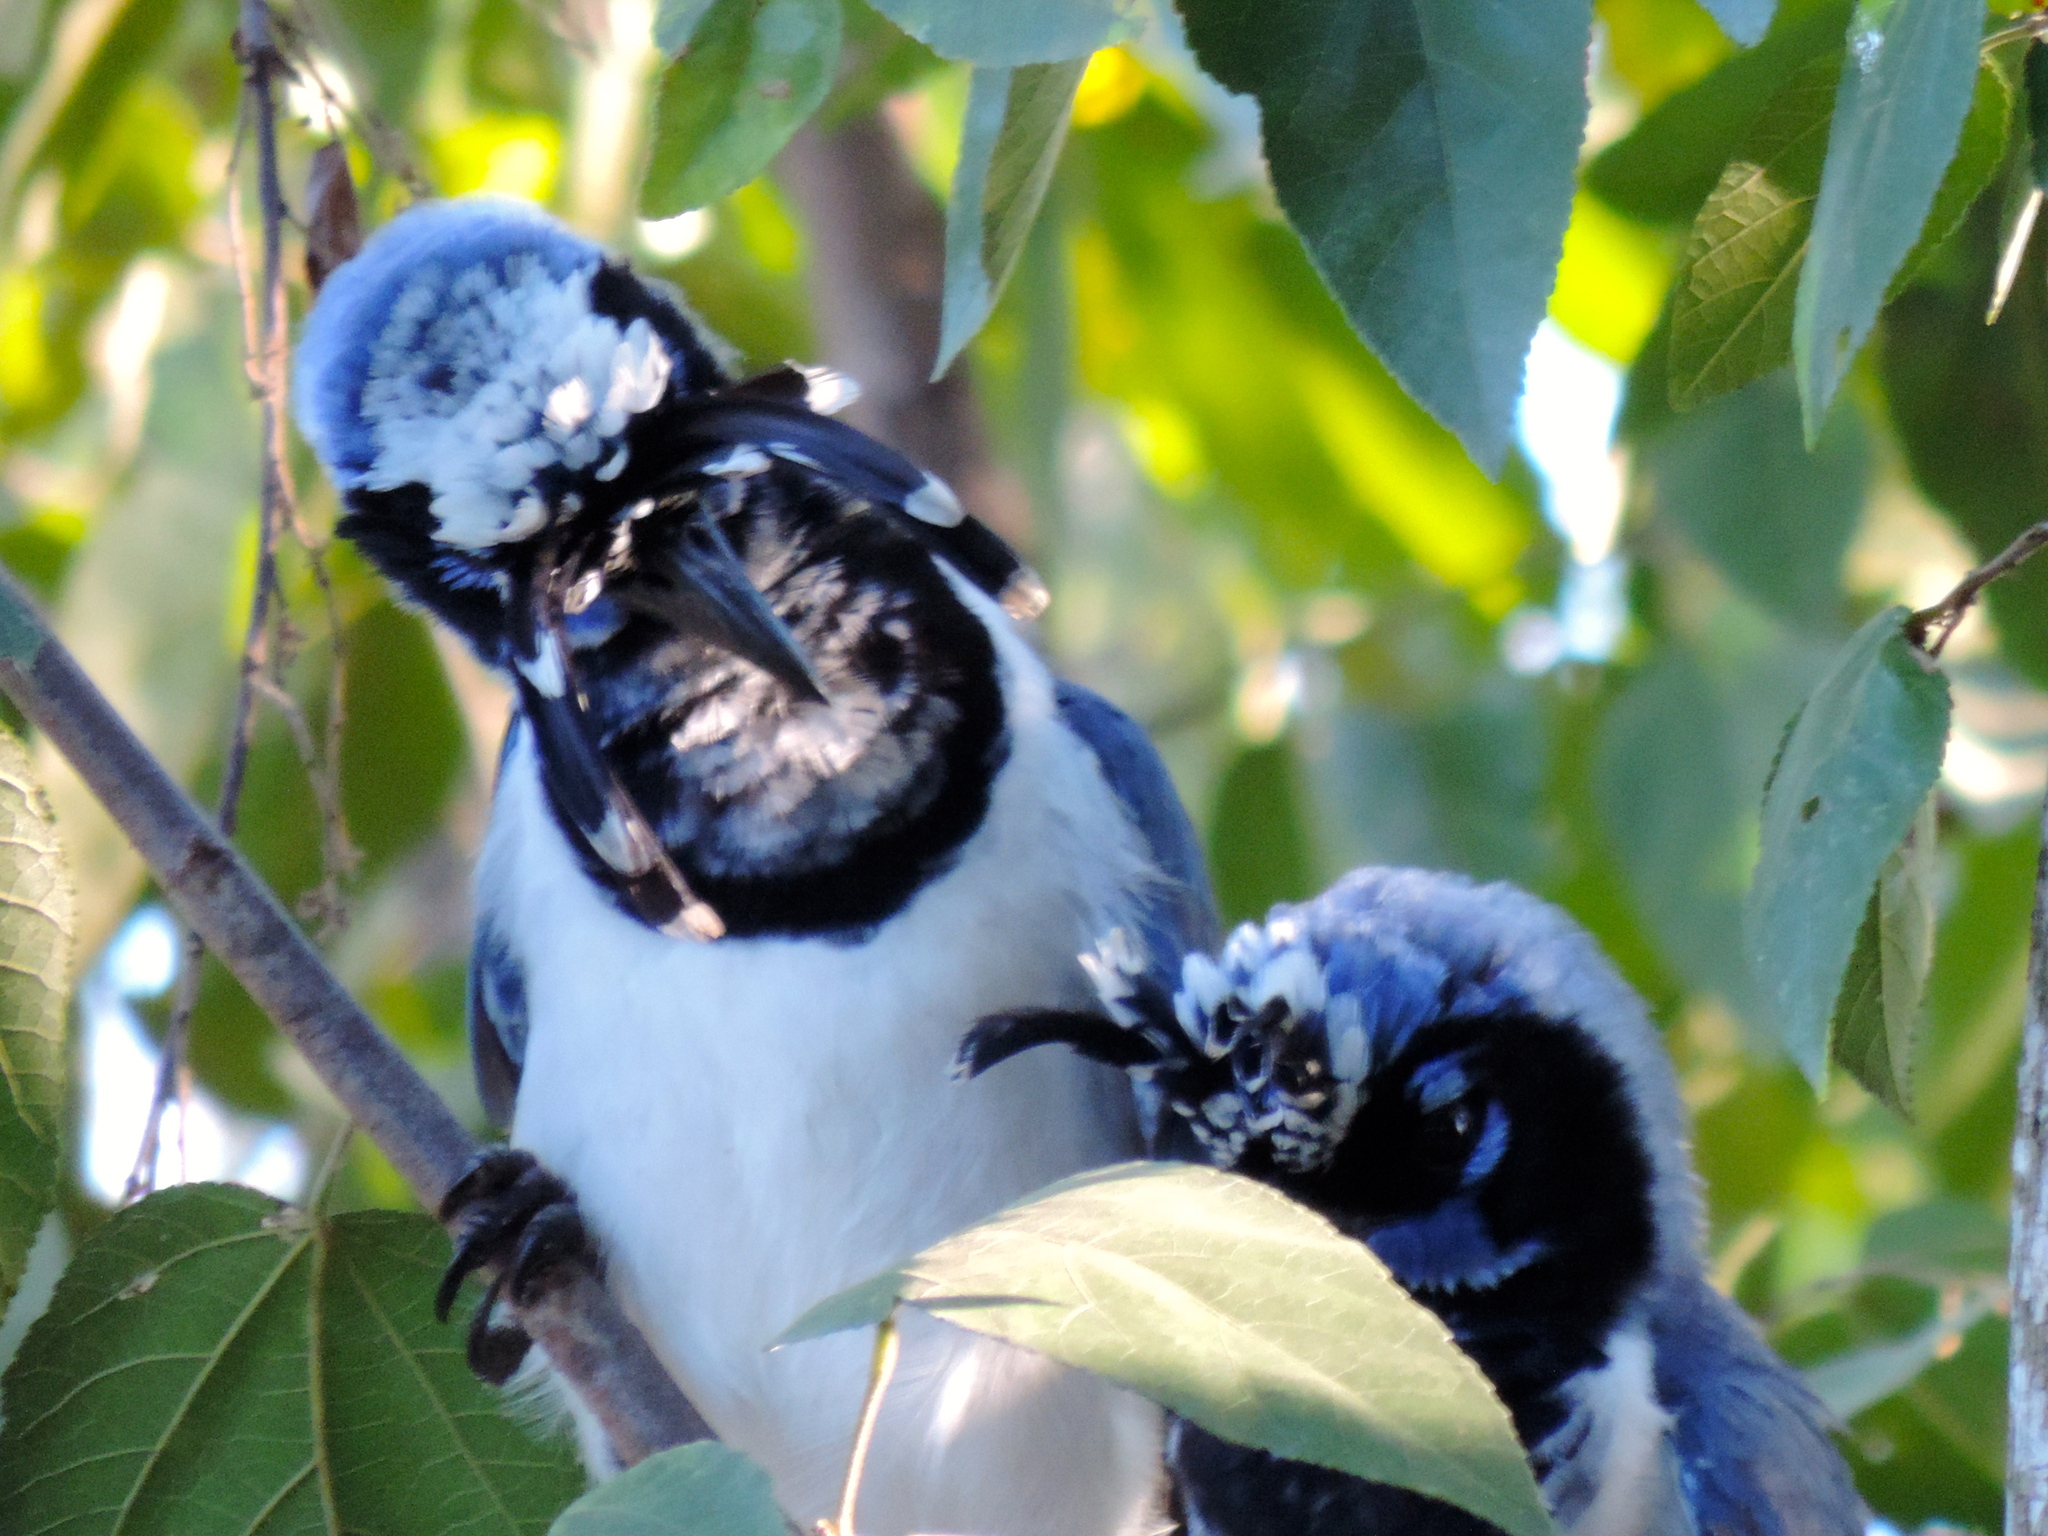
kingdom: Animalia
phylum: Chordata
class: Aves
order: Passeriformes
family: Corvidae
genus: Calocitta
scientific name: Calocitta colliei
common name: Black-throated magpie-jay
